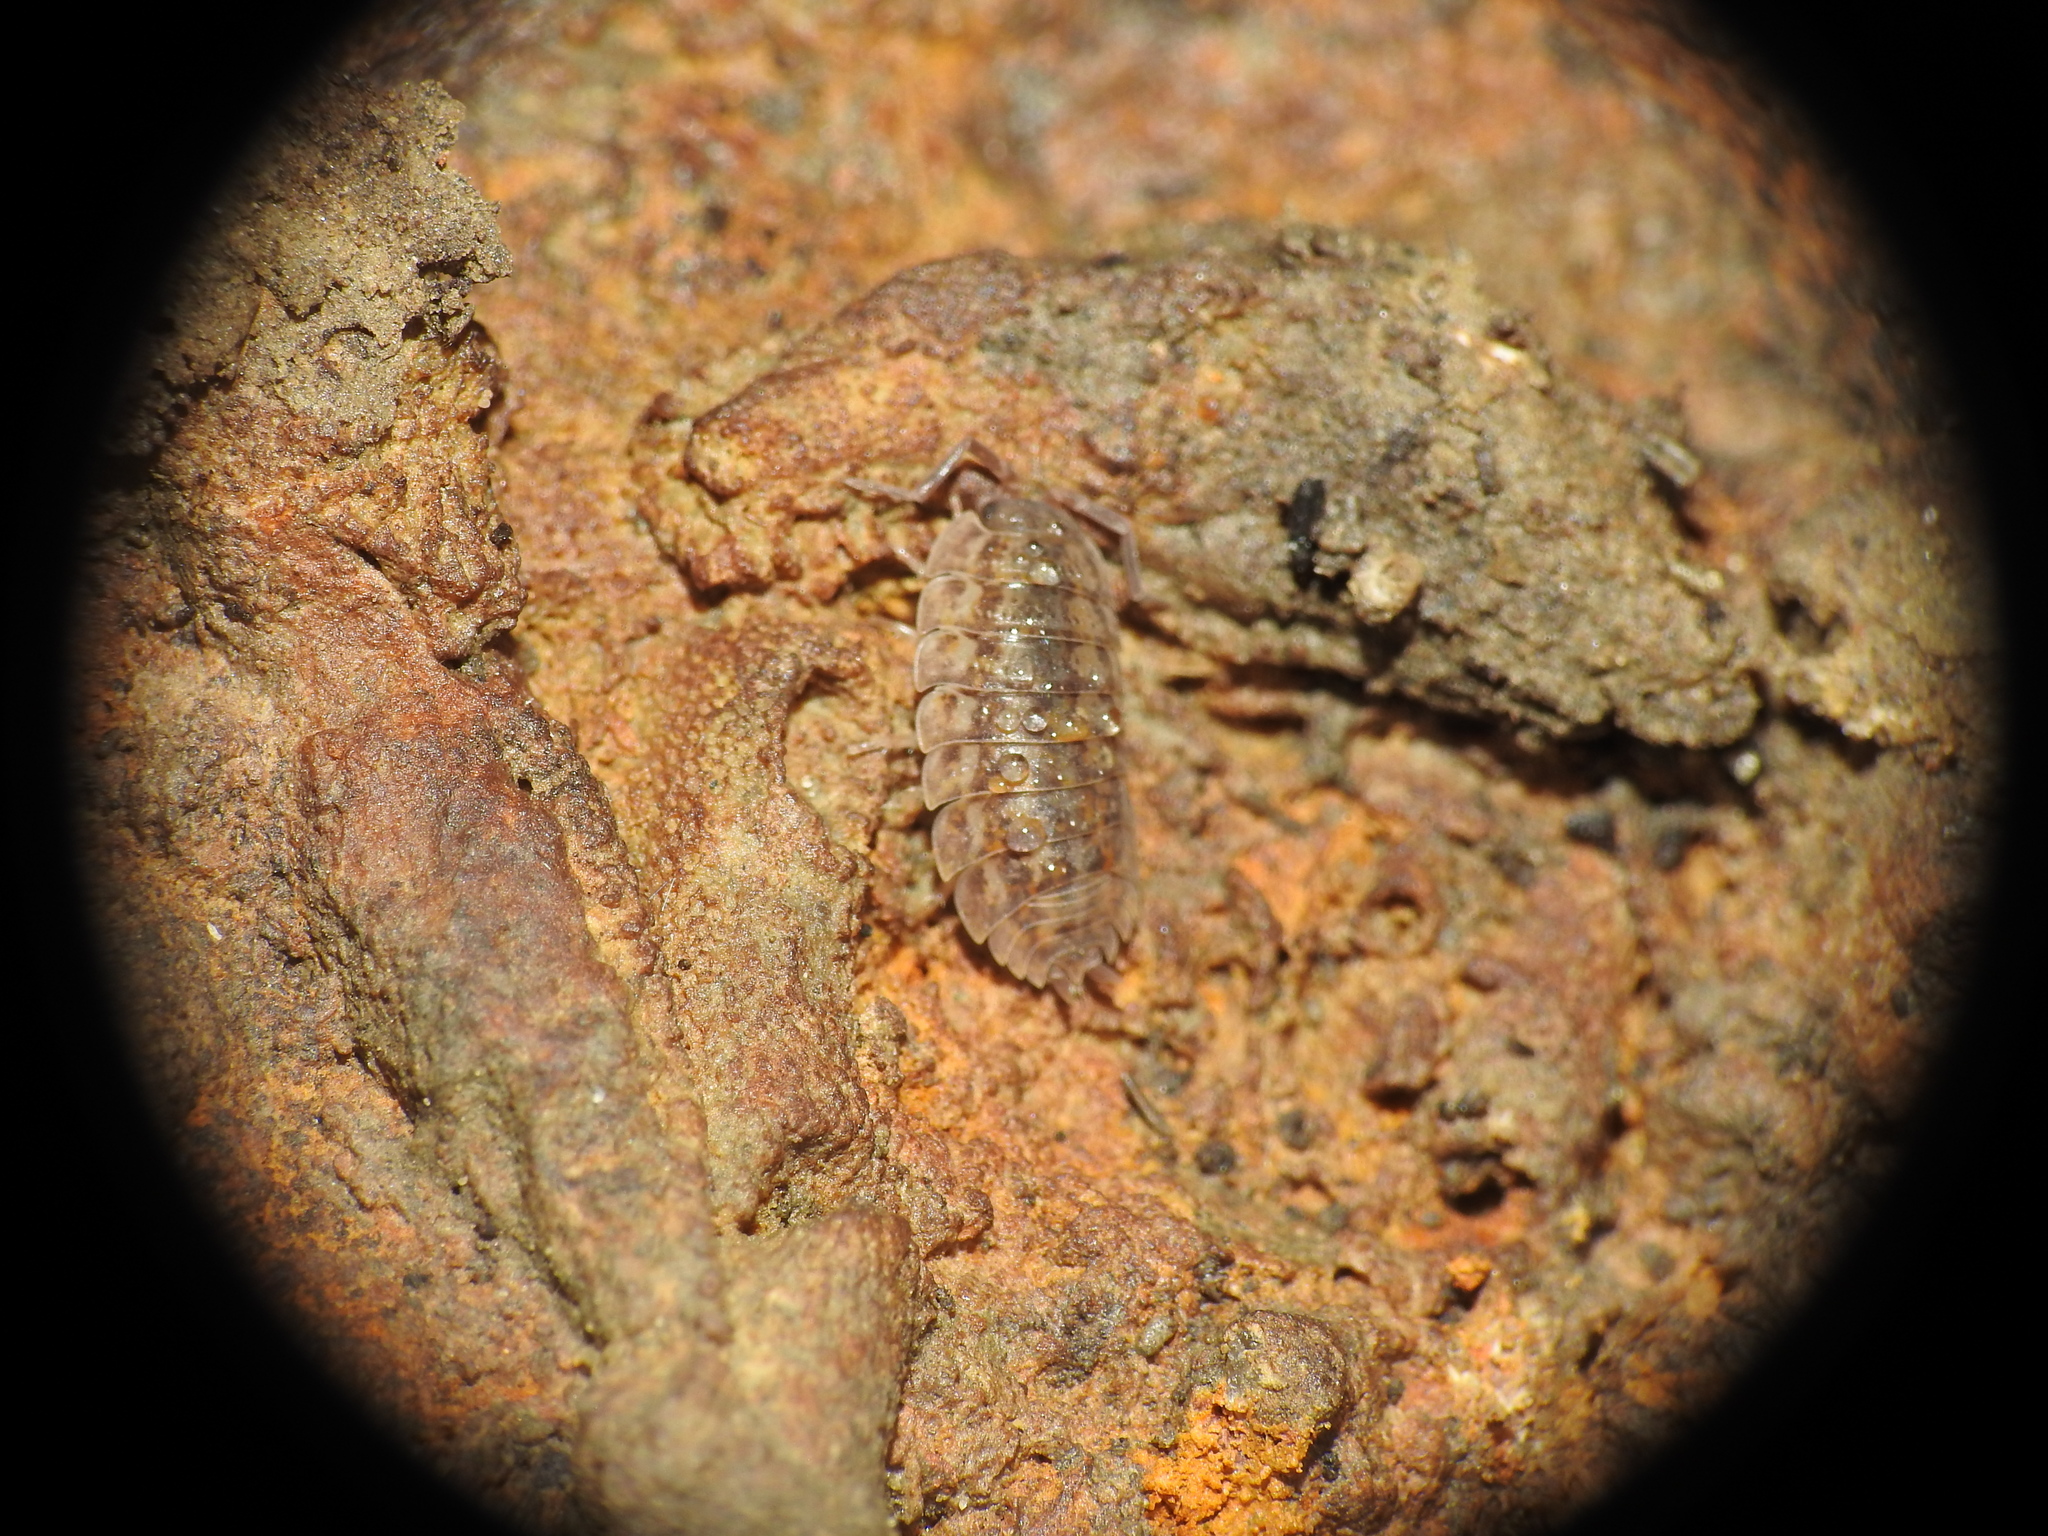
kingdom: Animalia
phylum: Arthropoda
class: Malacostraca
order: Isopoda
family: Trachelipodidae
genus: Trachelipus
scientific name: Trachelipus rathkii
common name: Isopod
